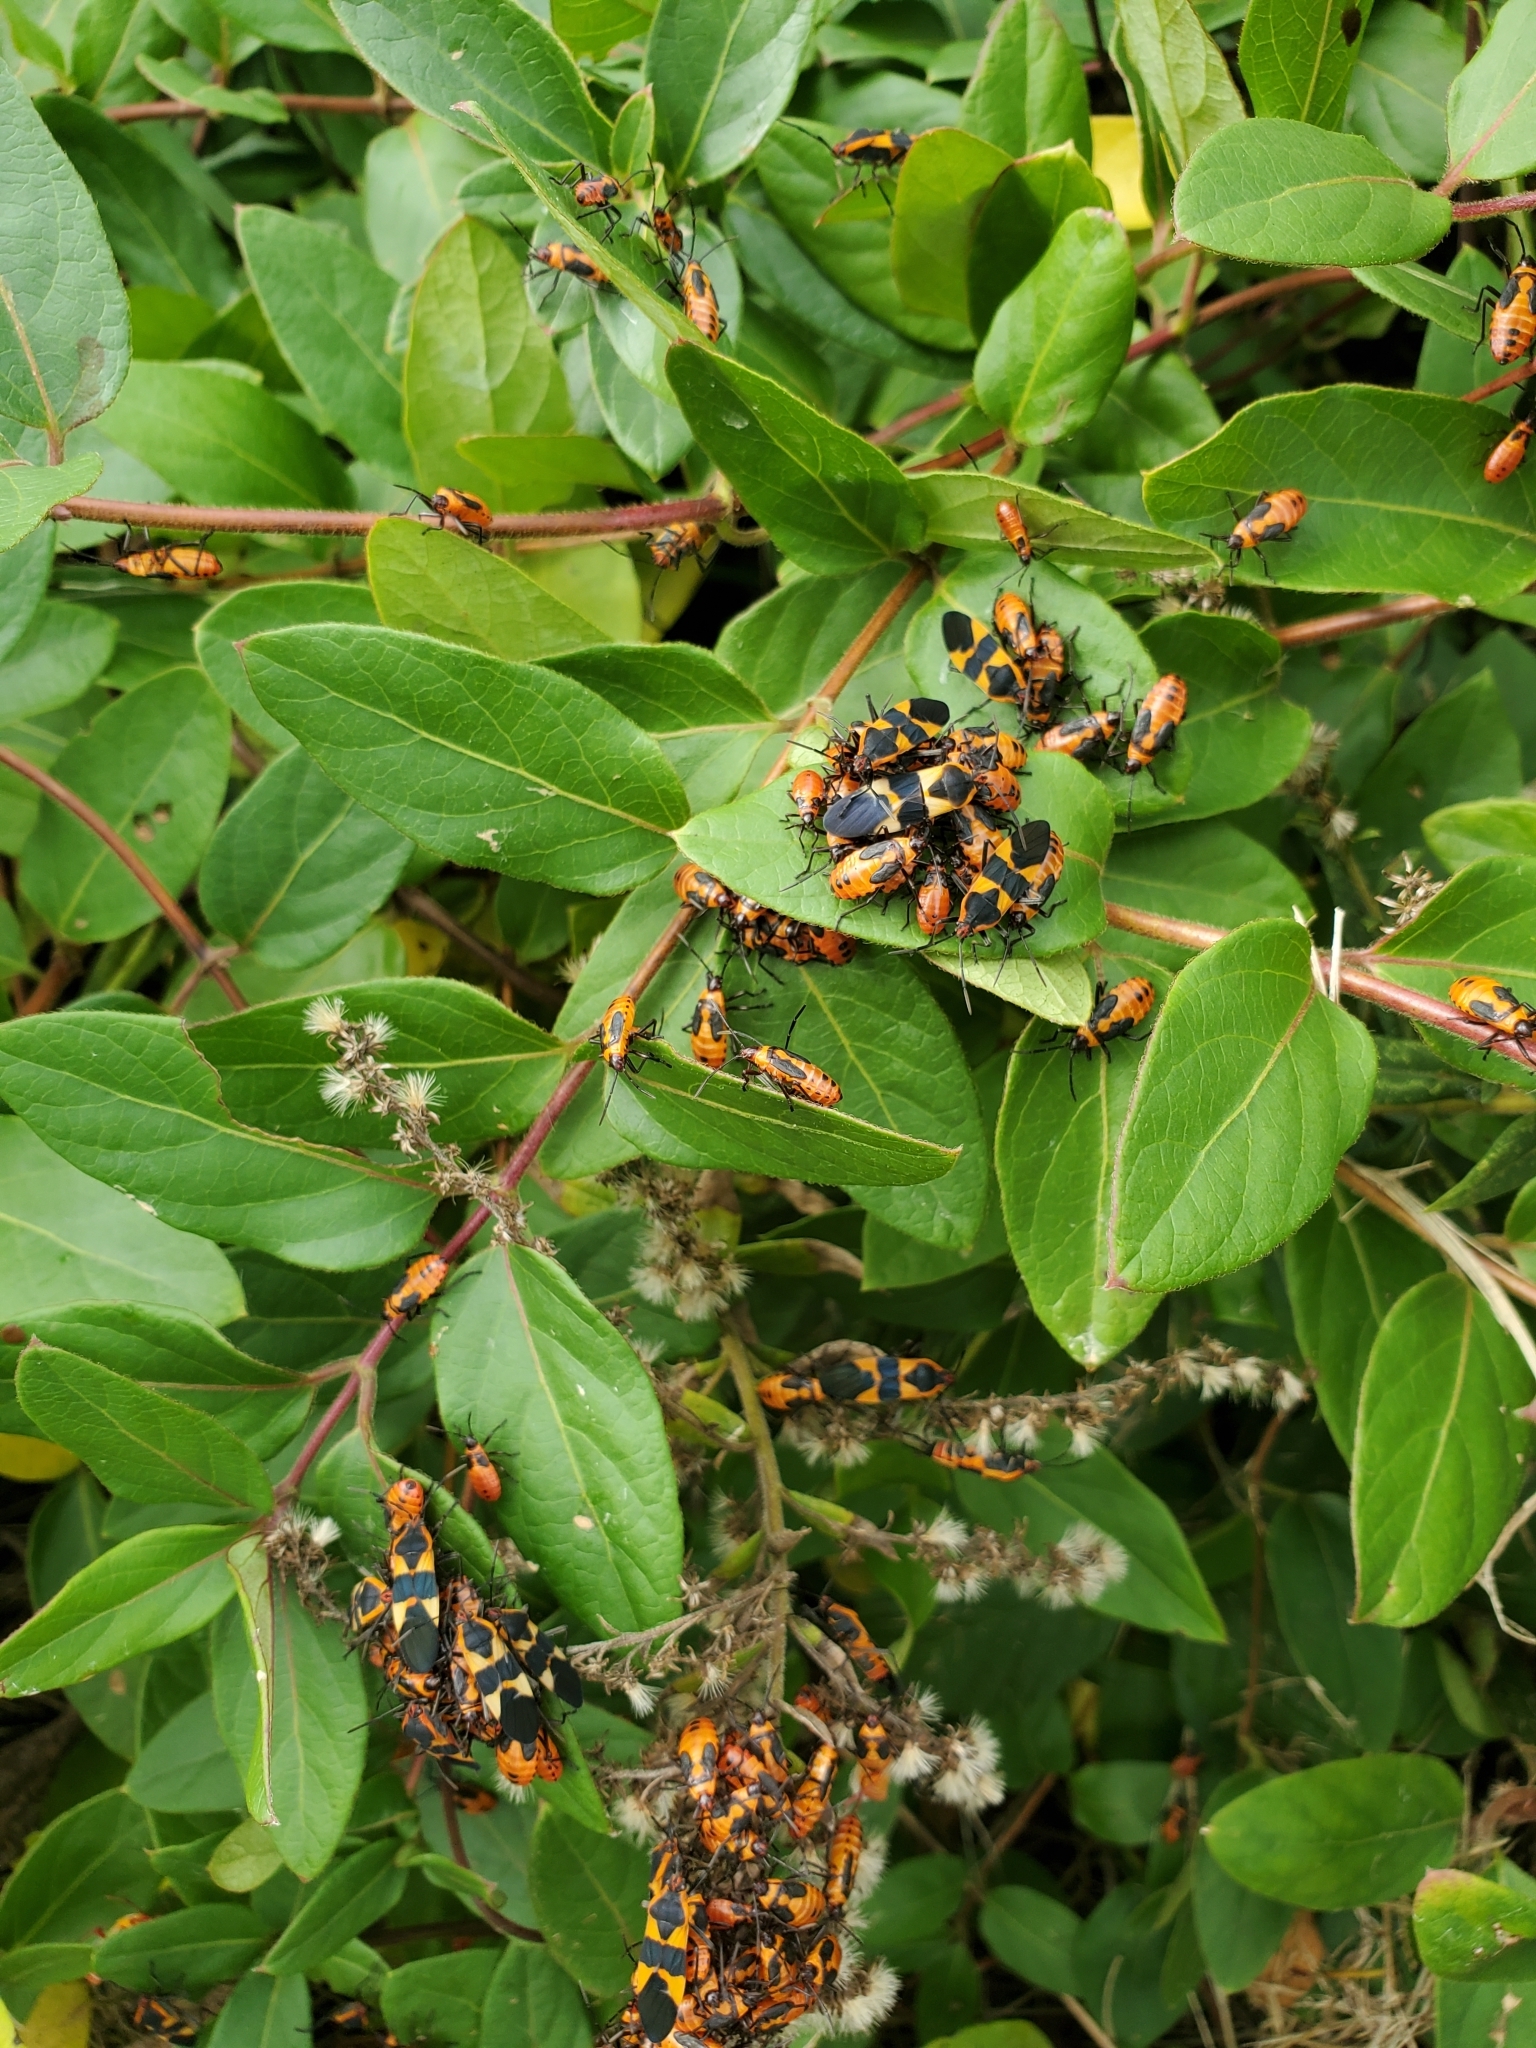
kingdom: Animalia
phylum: Arthropoda
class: Insecta
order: Hemiptera
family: Lygaeidae
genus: Oncopeltus
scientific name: Oncopeltus fasciatus
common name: Large milkweed bug
